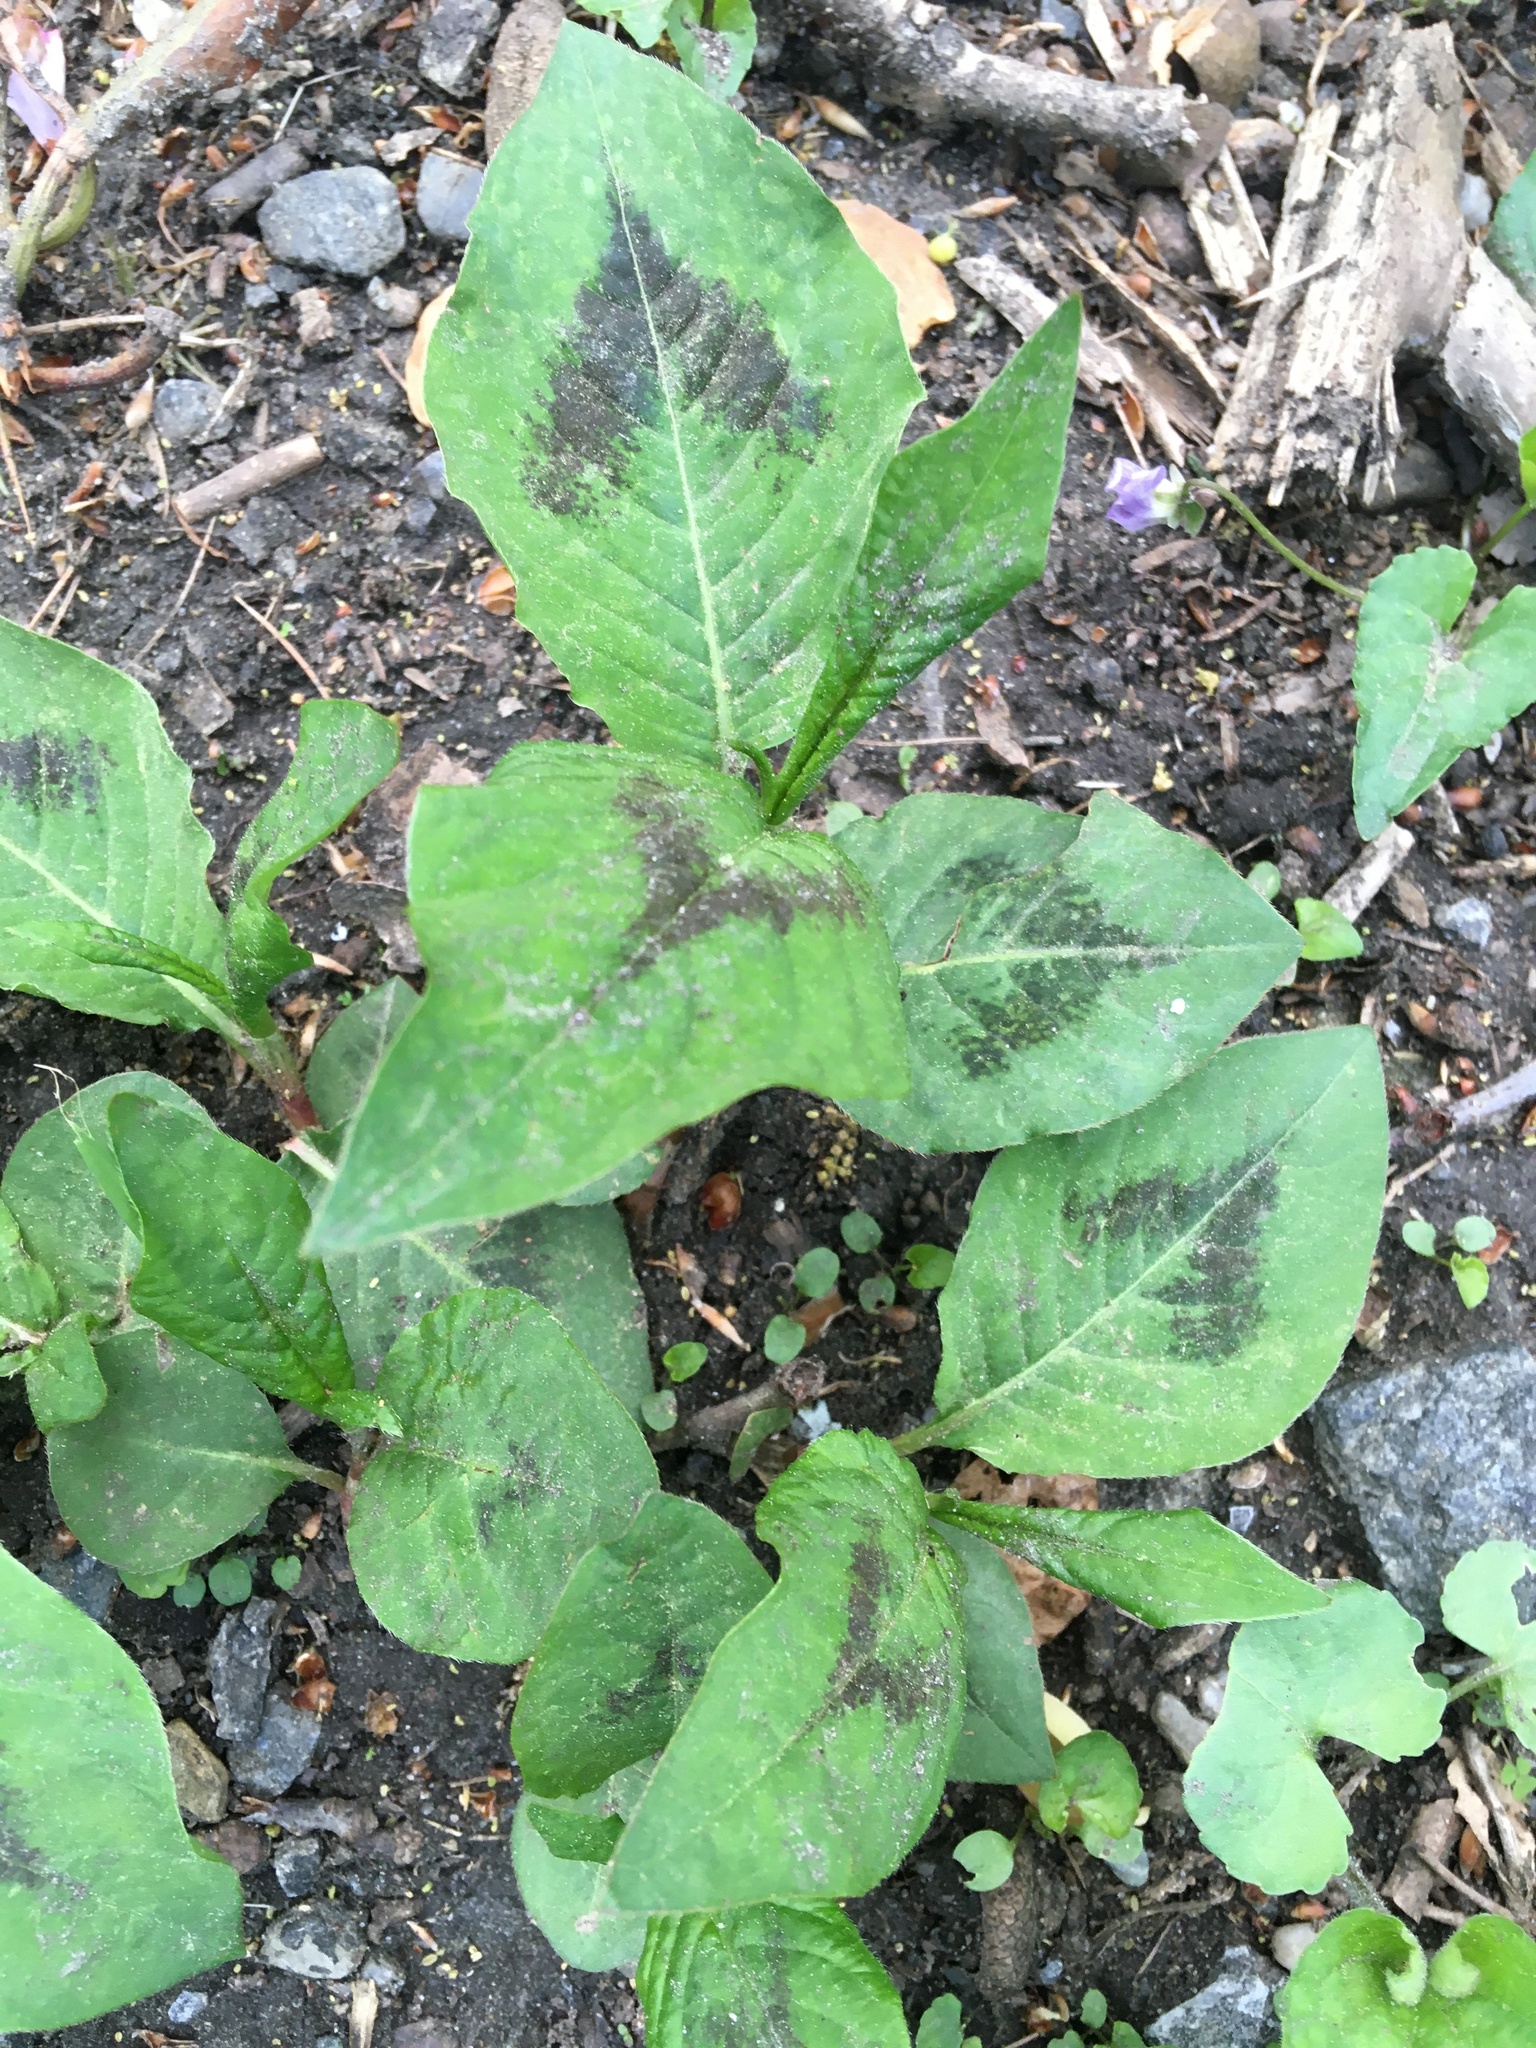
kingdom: Plantae
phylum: Tracheophyta
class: Magnoliopsida
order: Caryophyllales
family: Polygonaceae
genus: Persicaria
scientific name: Persicaria virginiana
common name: Jumpseed
